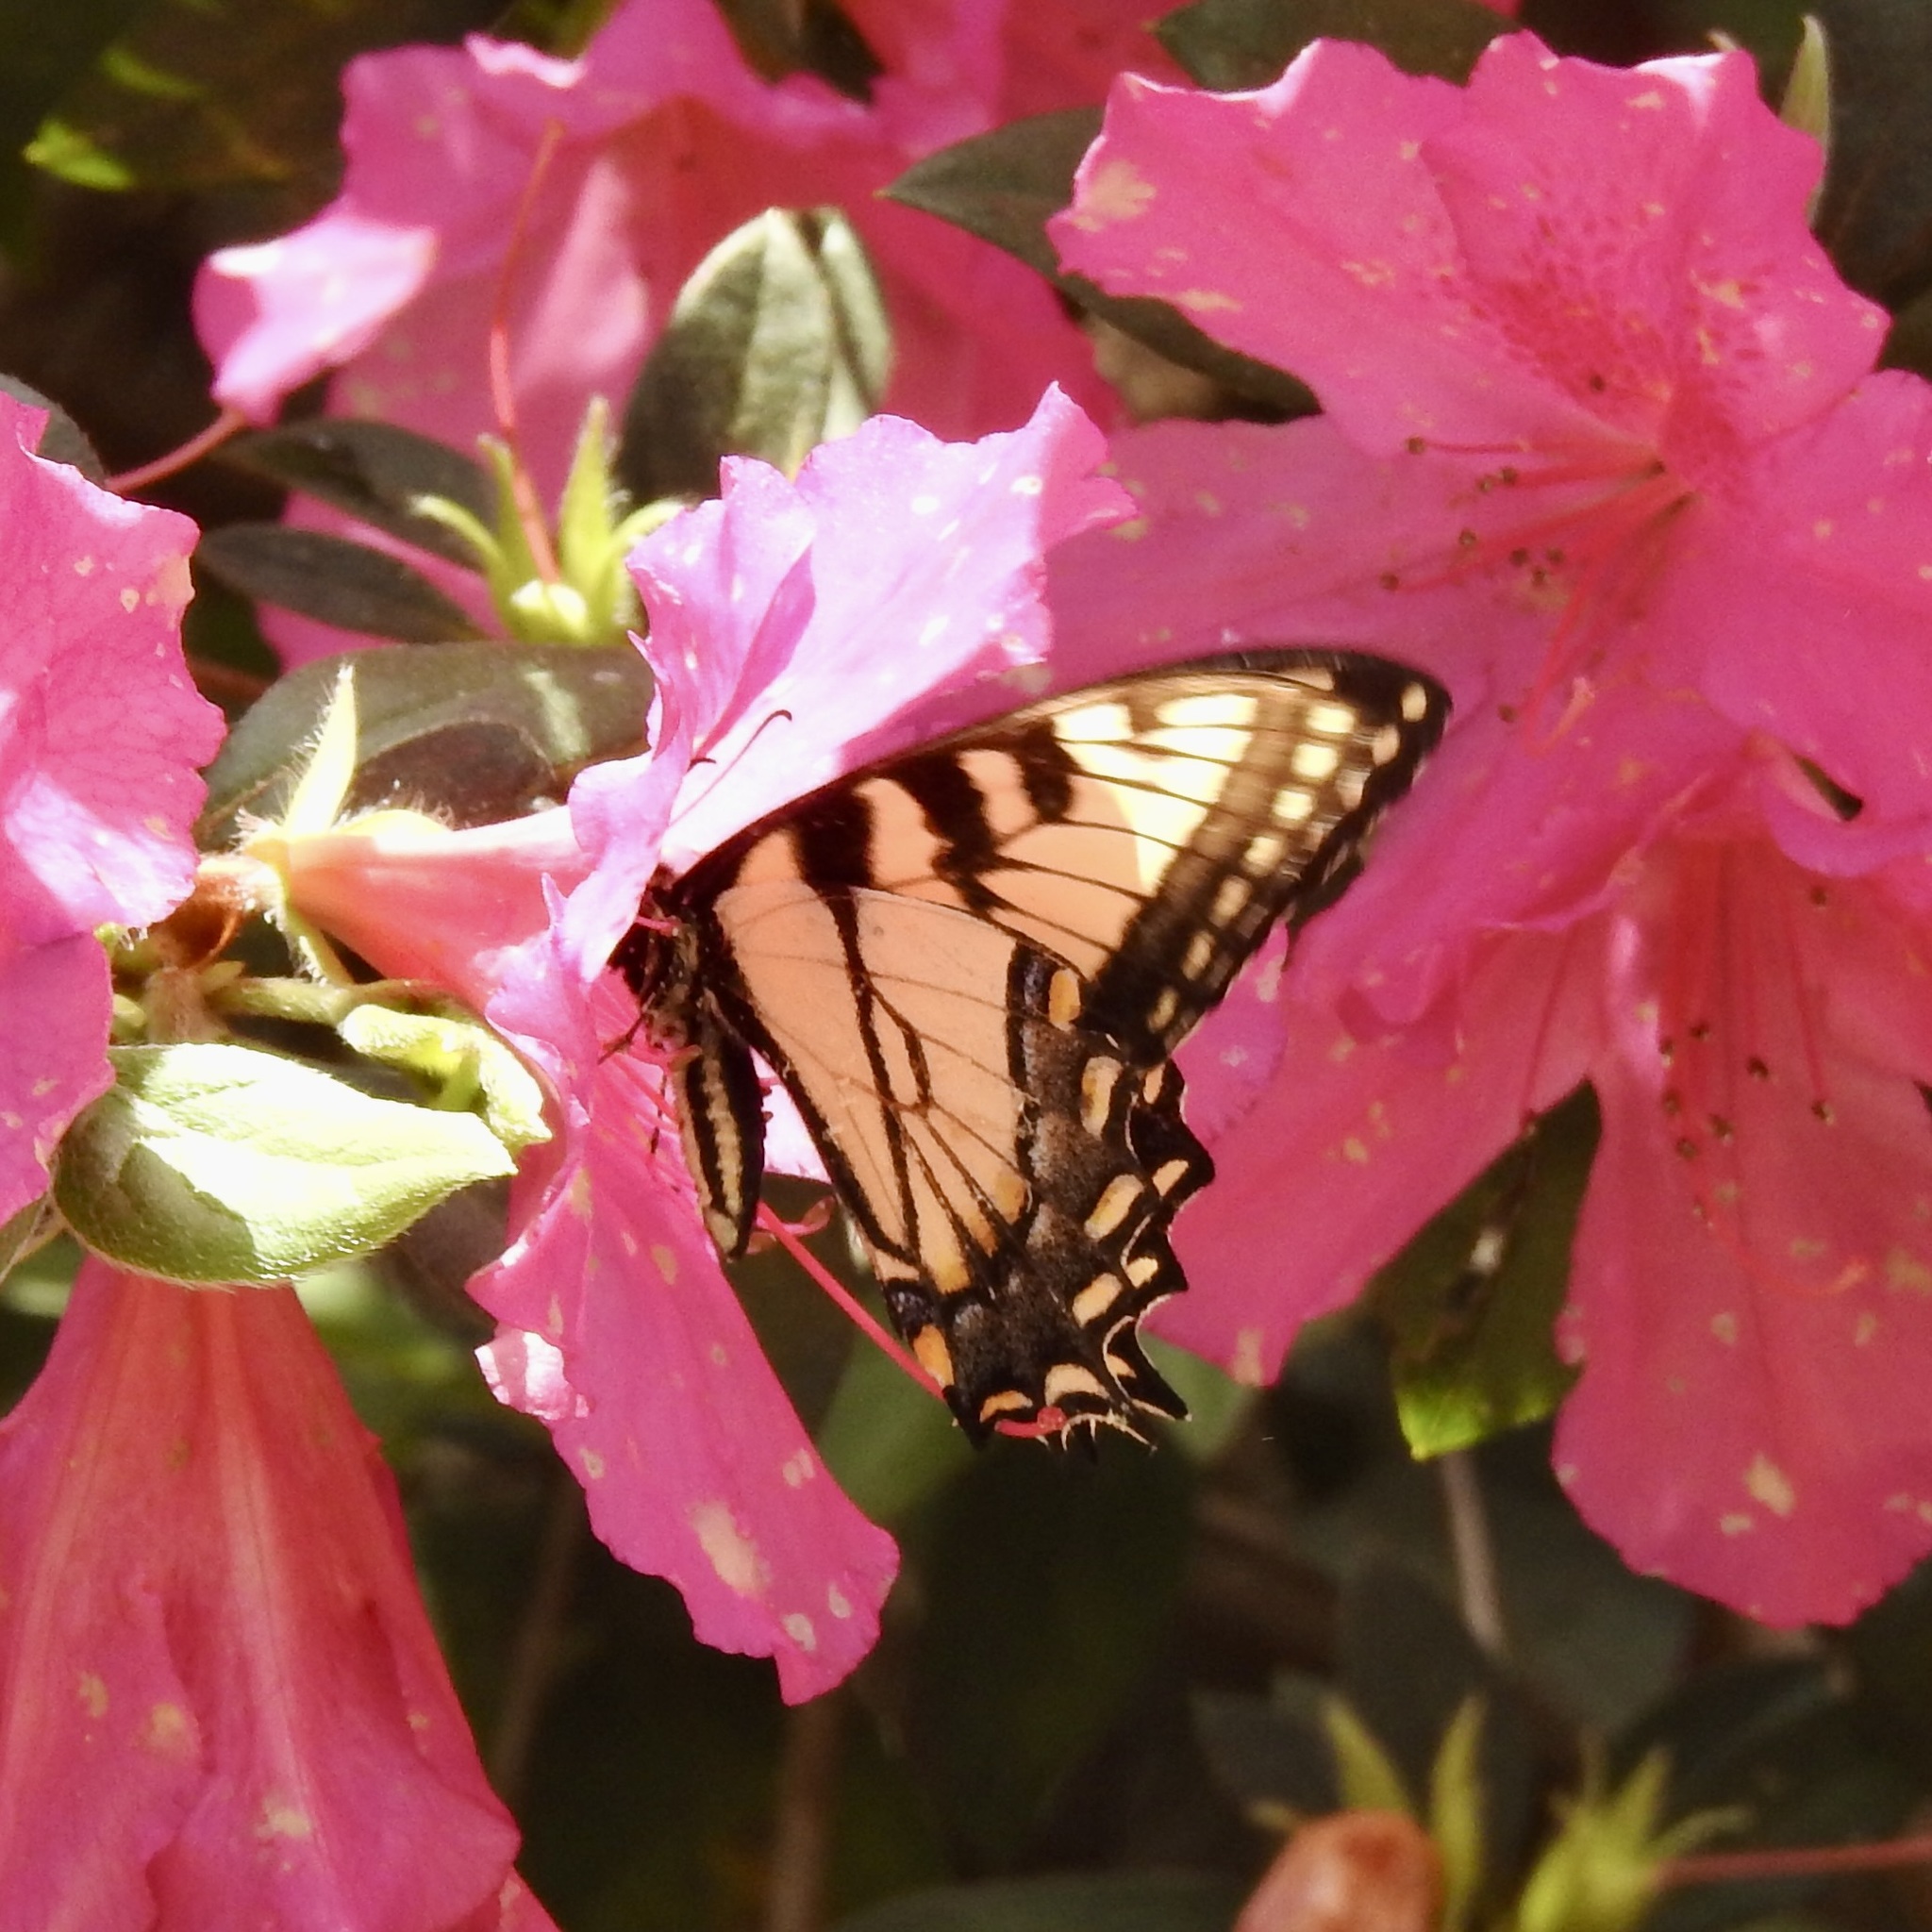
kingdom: Animalia
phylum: Arthropoda
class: Insecta
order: Lepidoptera
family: Papilionidae
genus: Papilio
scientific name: Papilio glaucus
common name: Tiger swallowtail
